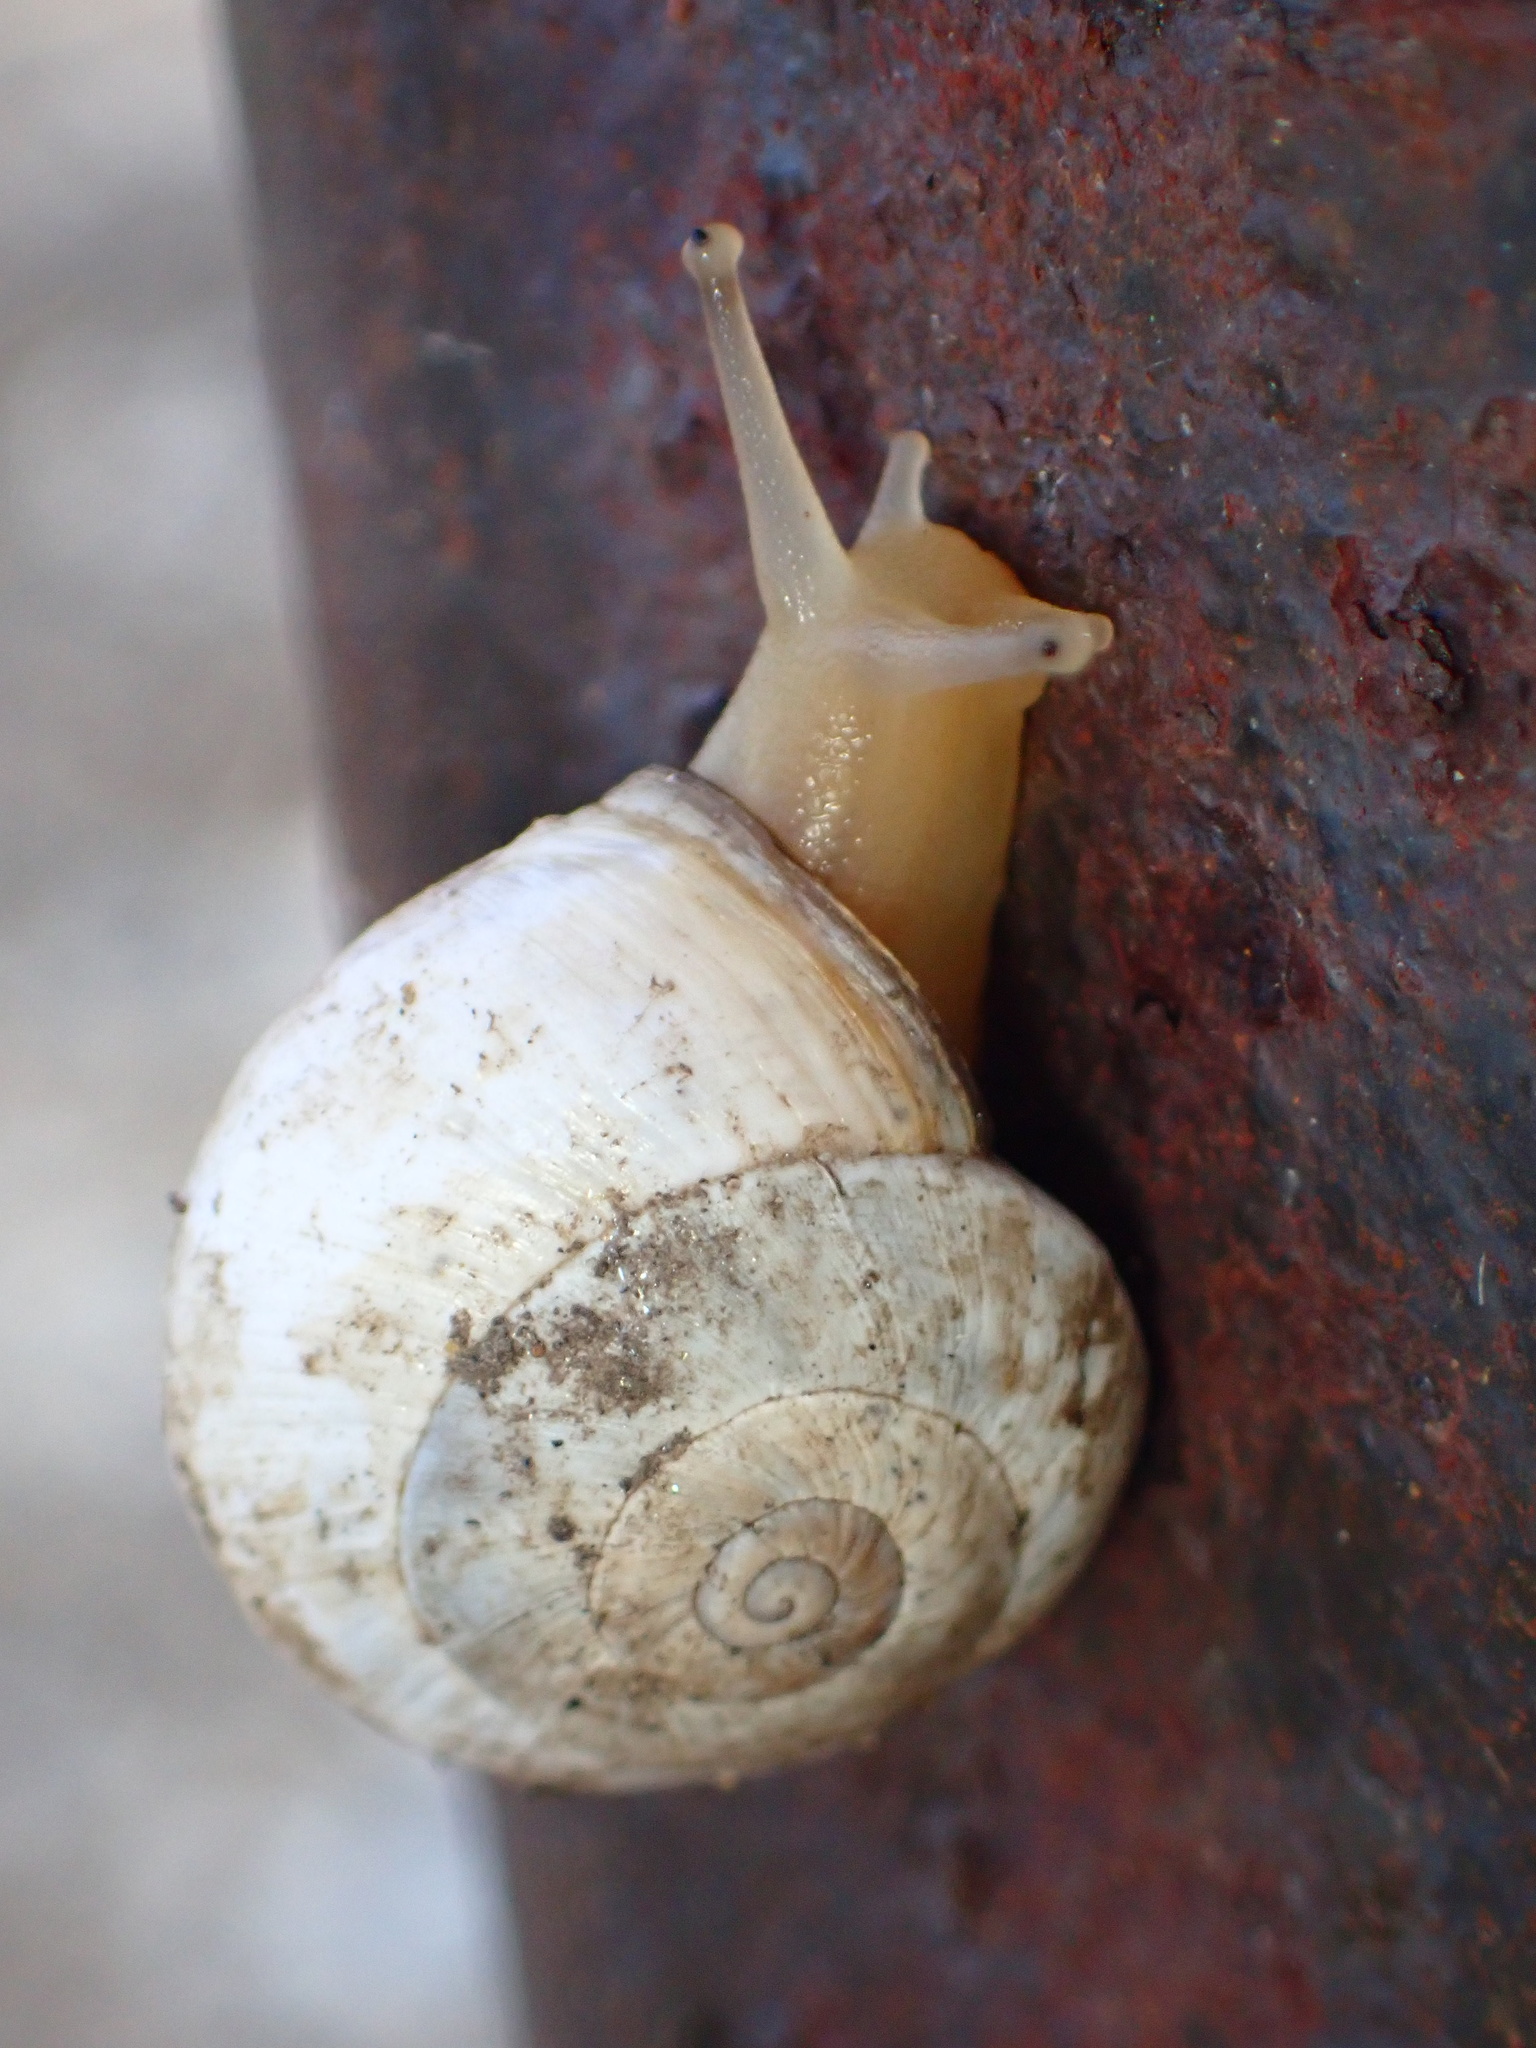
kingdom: Animalia
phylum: Mollusca
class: Gastropoda
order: Stylommatophora
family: Helicidae
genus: Theba
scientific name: Theba pisana
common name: White snail
